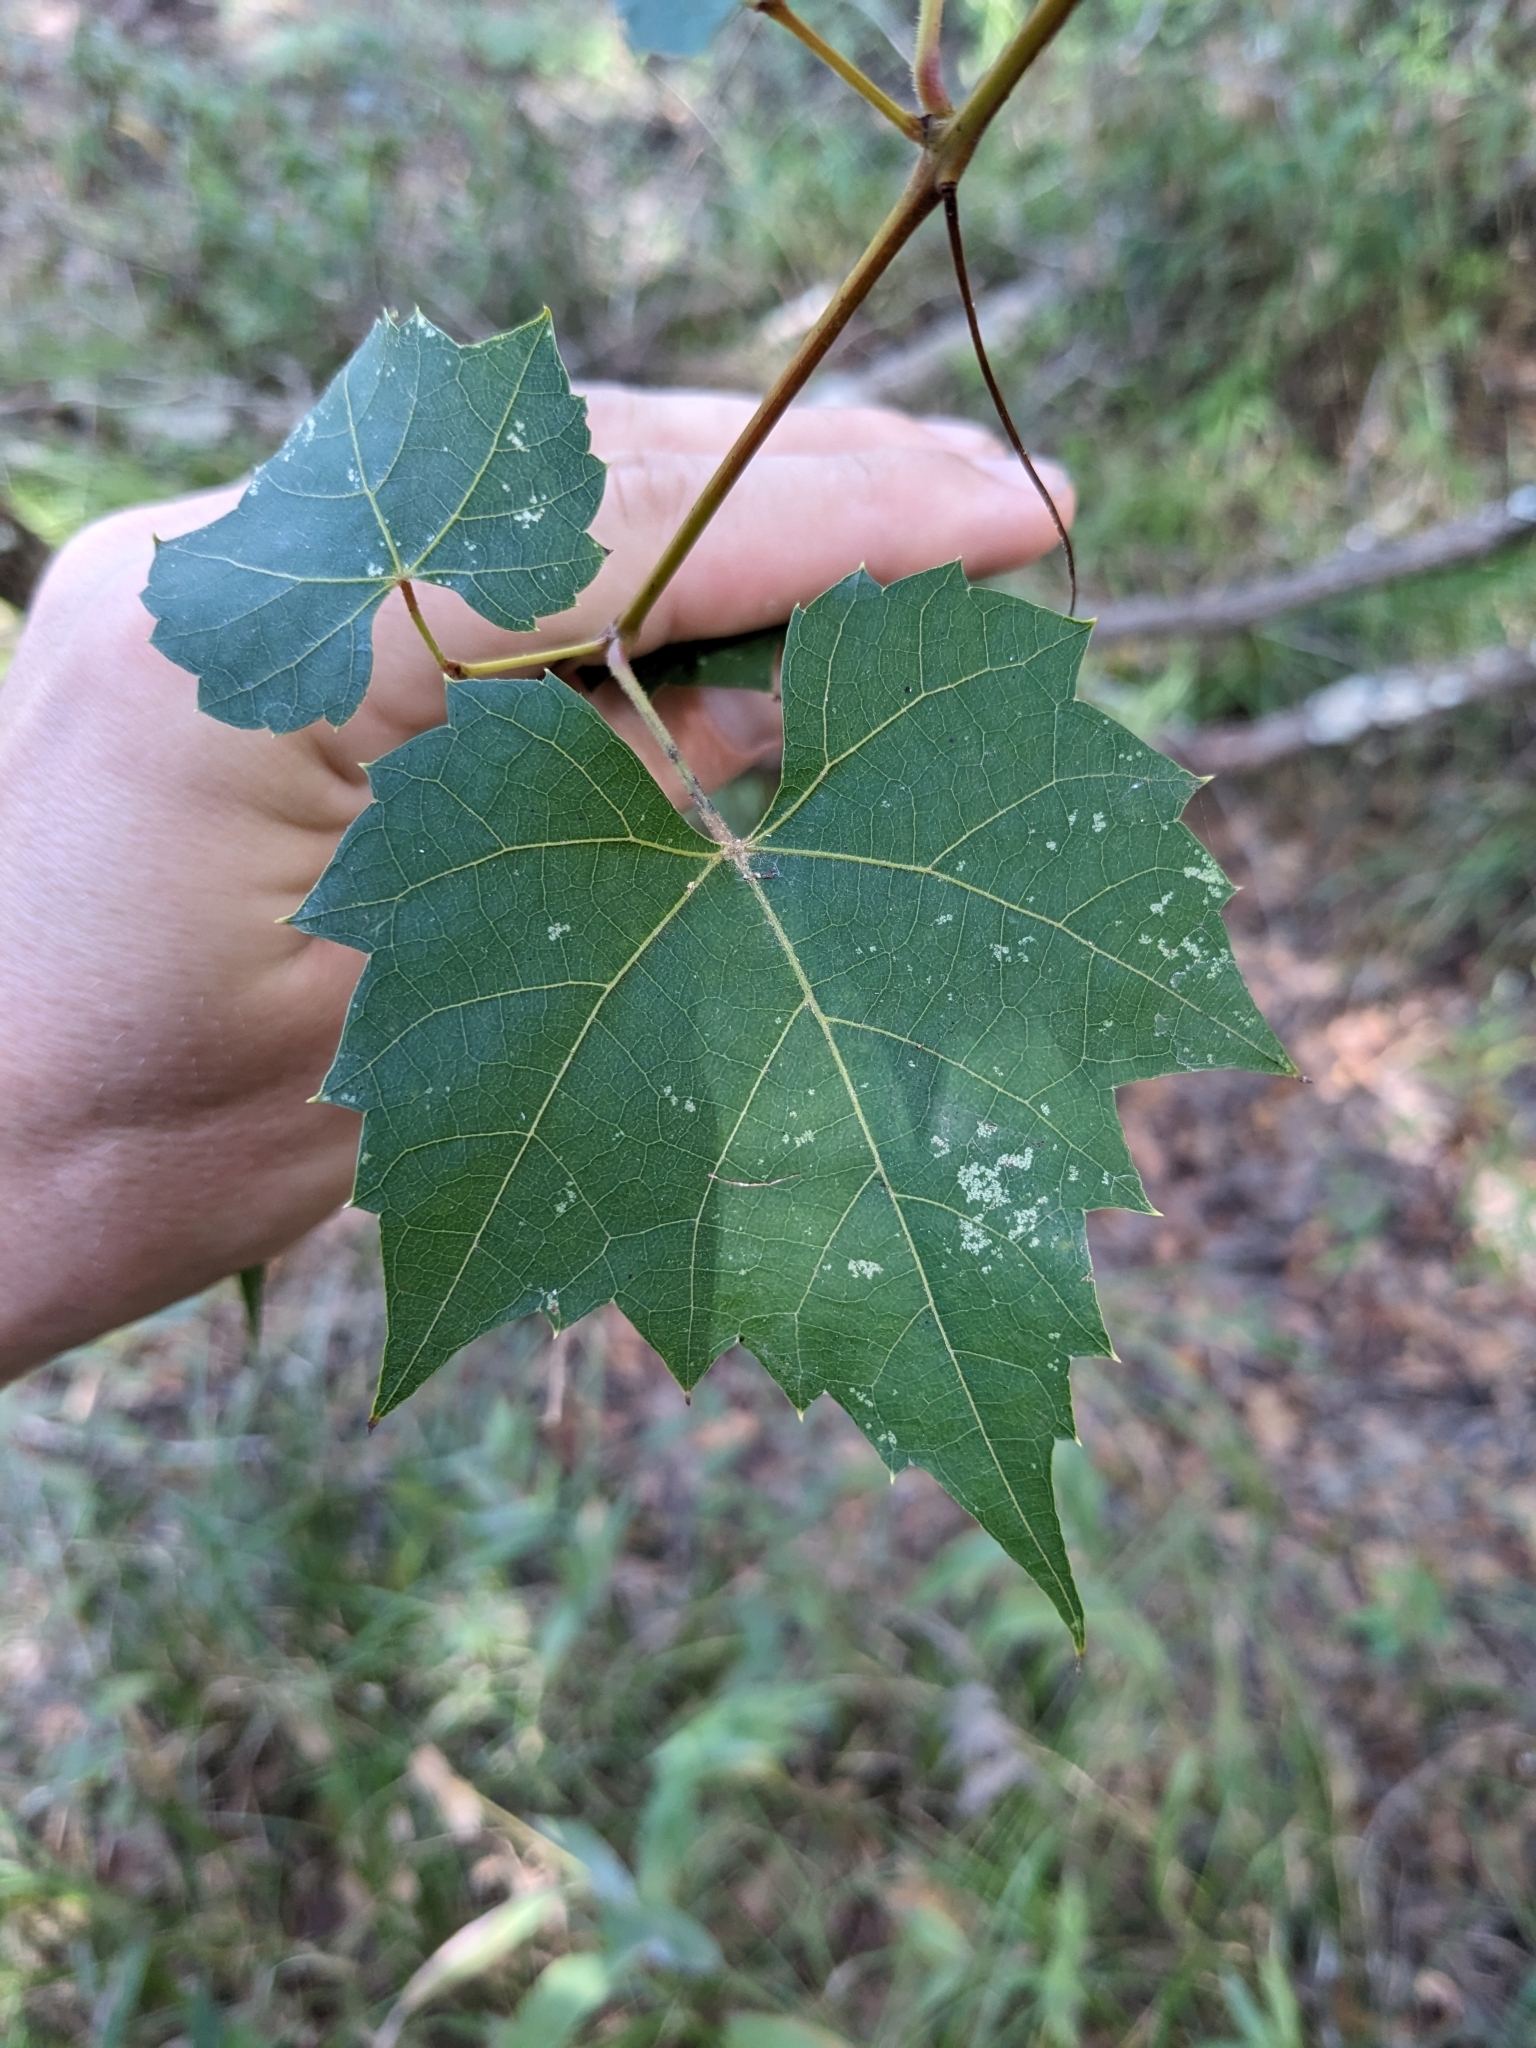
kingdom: Plantae
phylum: Tracheophyta
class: Magnoliopsida
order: Vitales
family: Vitaceae
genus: Vitis
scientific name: Vitis palmata
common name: Catbird grape
